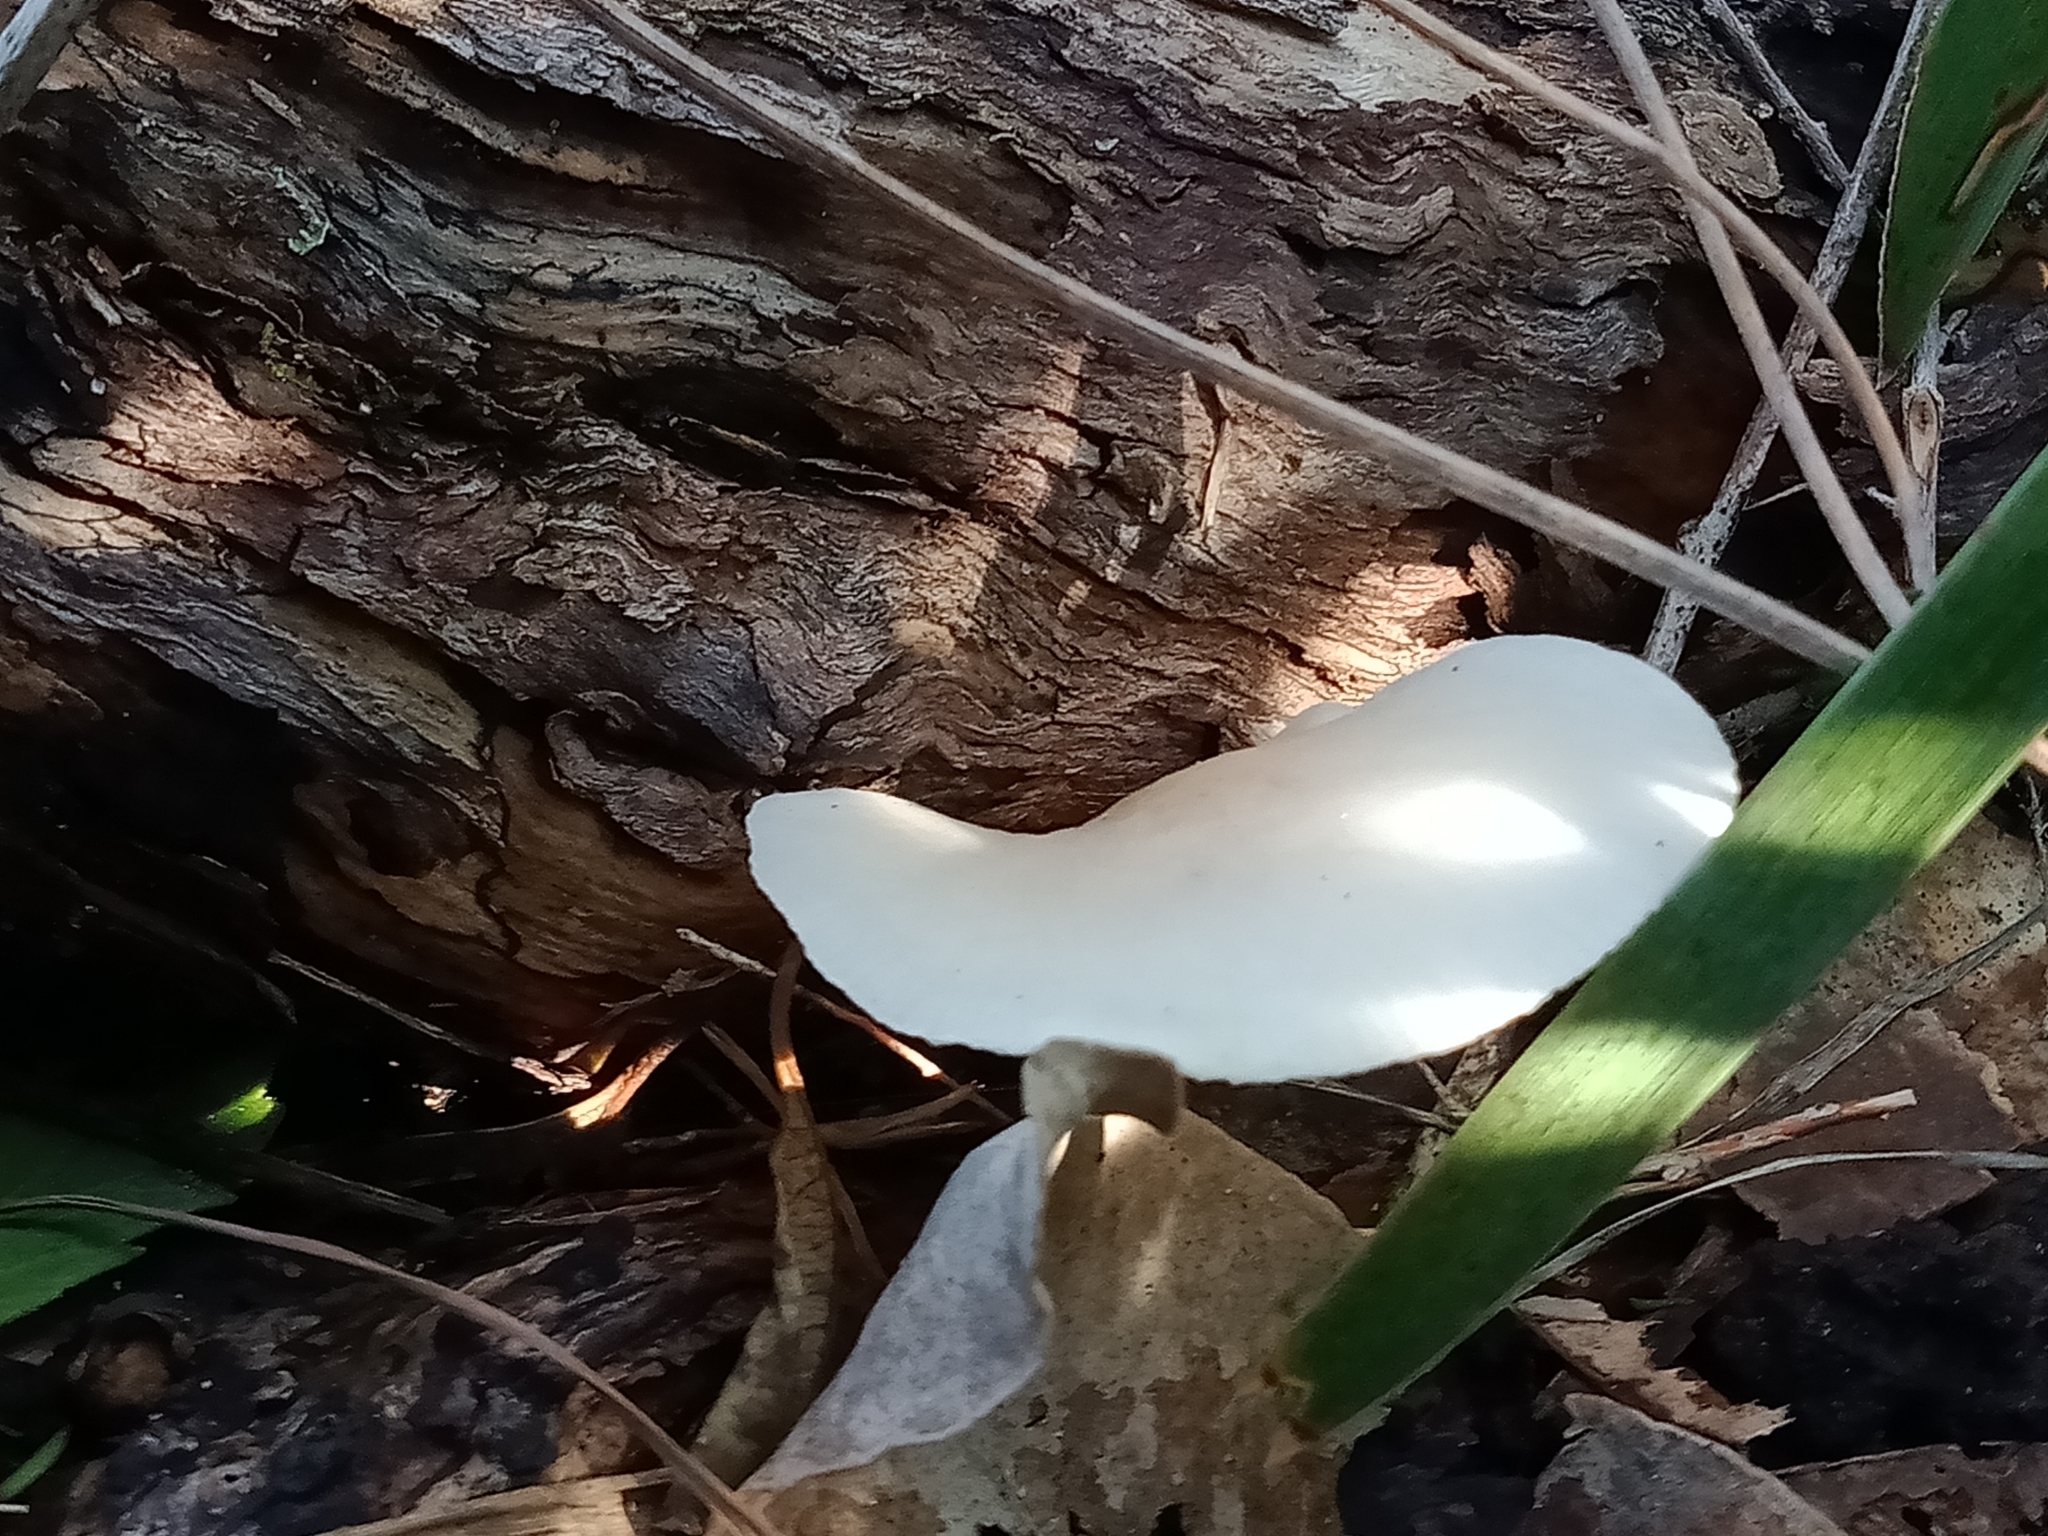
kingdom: Fungi
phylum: Basidiomycota
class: Agaricomycetes
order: Agaricales
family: Omphalotaceae
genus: Omphalotus
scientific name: Omphalotus nidiformis
